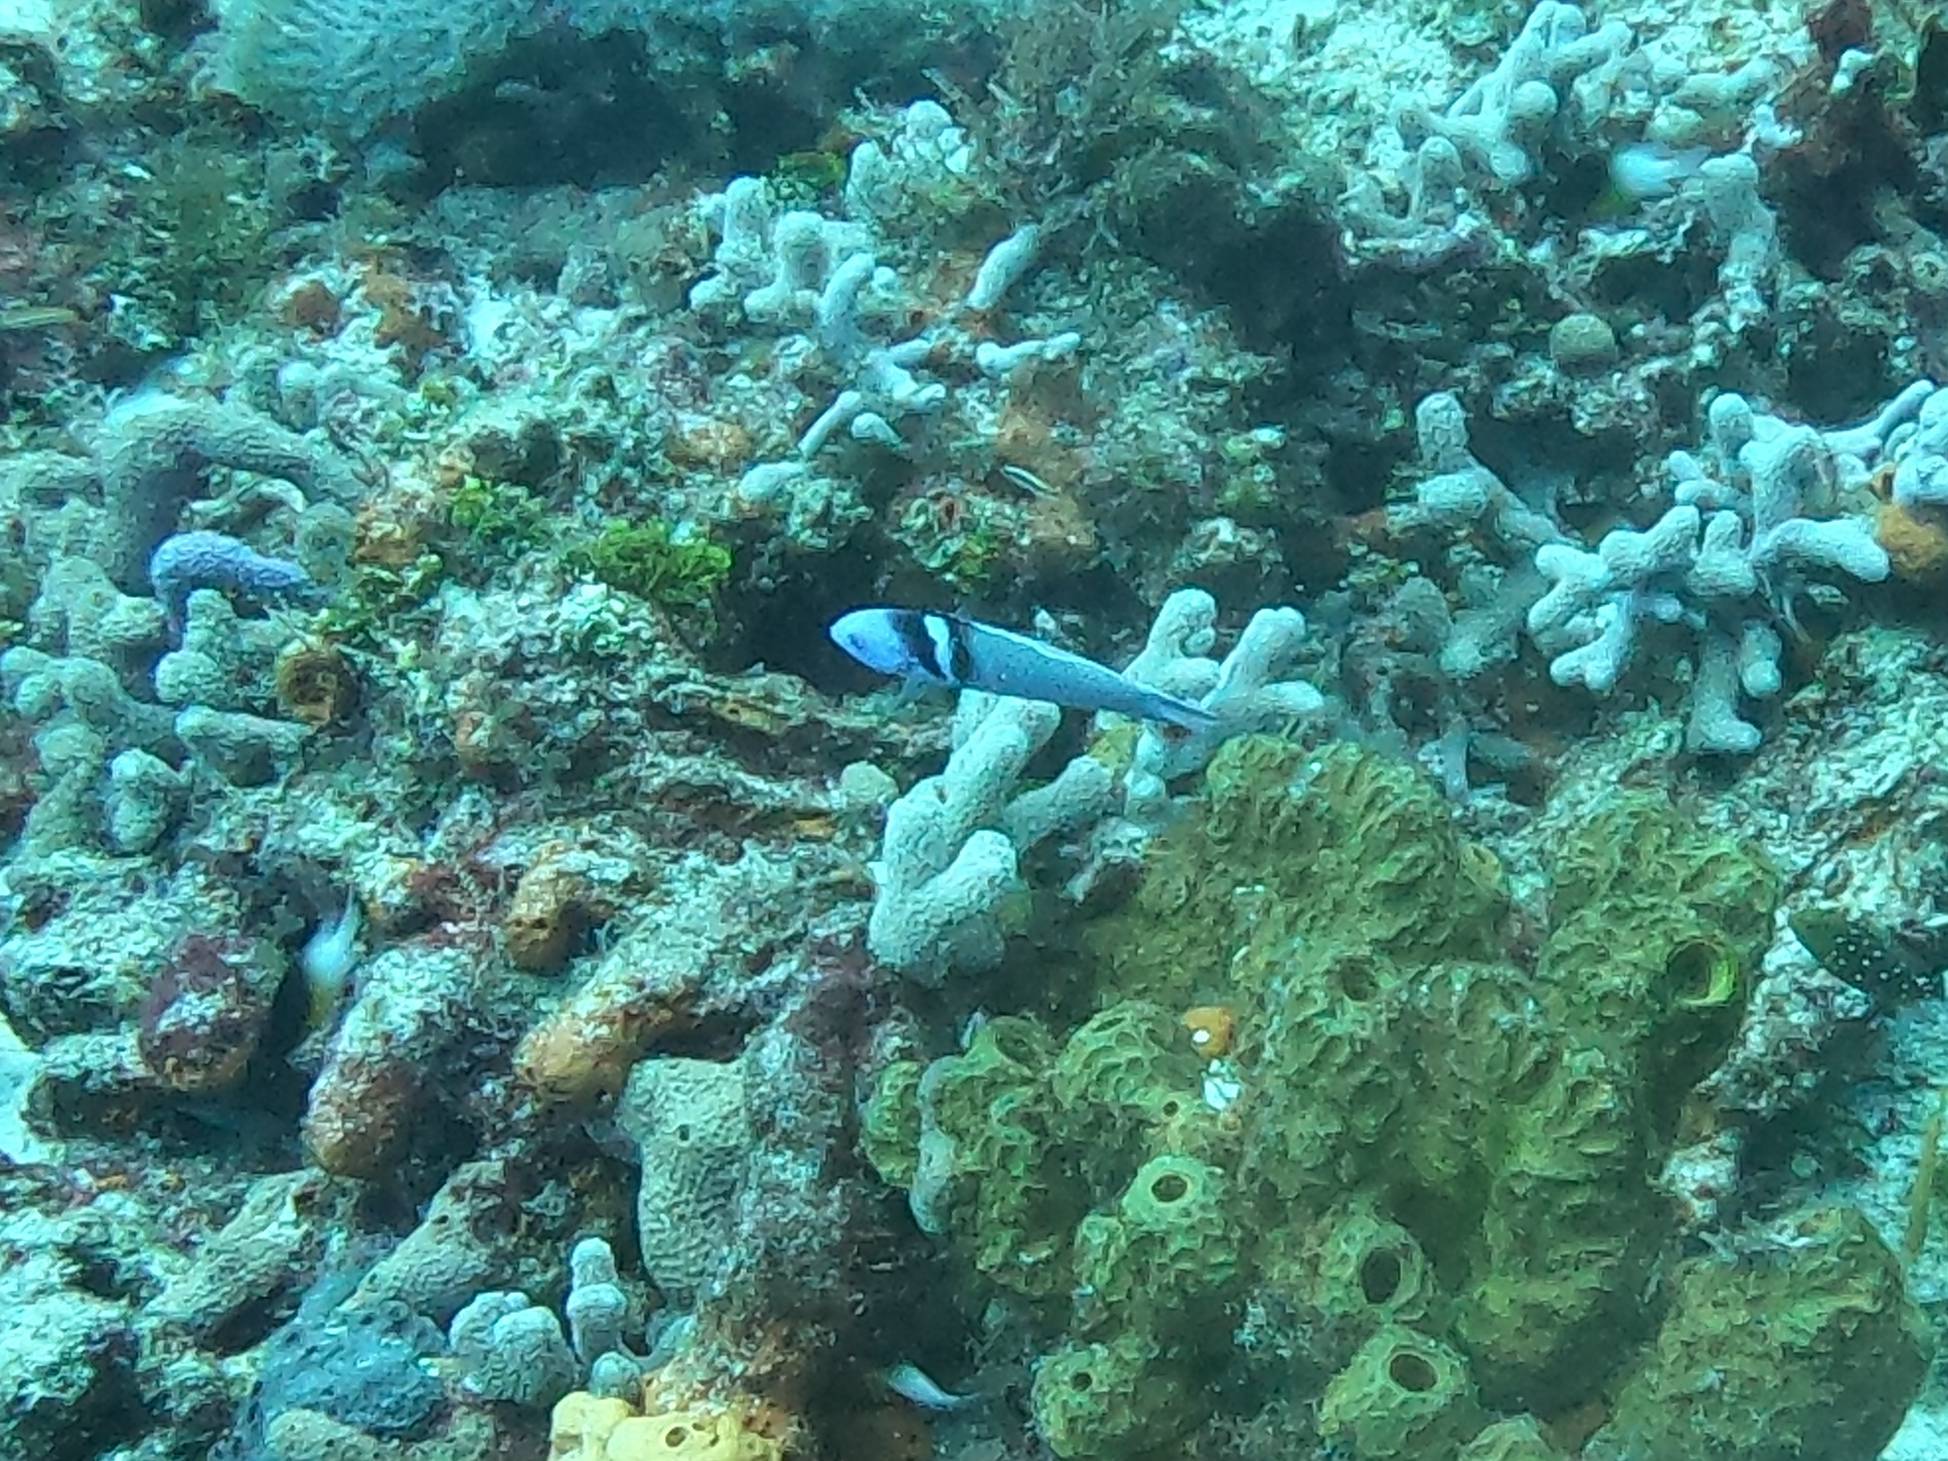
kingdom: Animalia
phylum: Chordata
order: Perciformes
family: Labridae
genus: Thalassoma
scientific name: Thalassoma bifasciatum
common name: Bluehead wrasse
